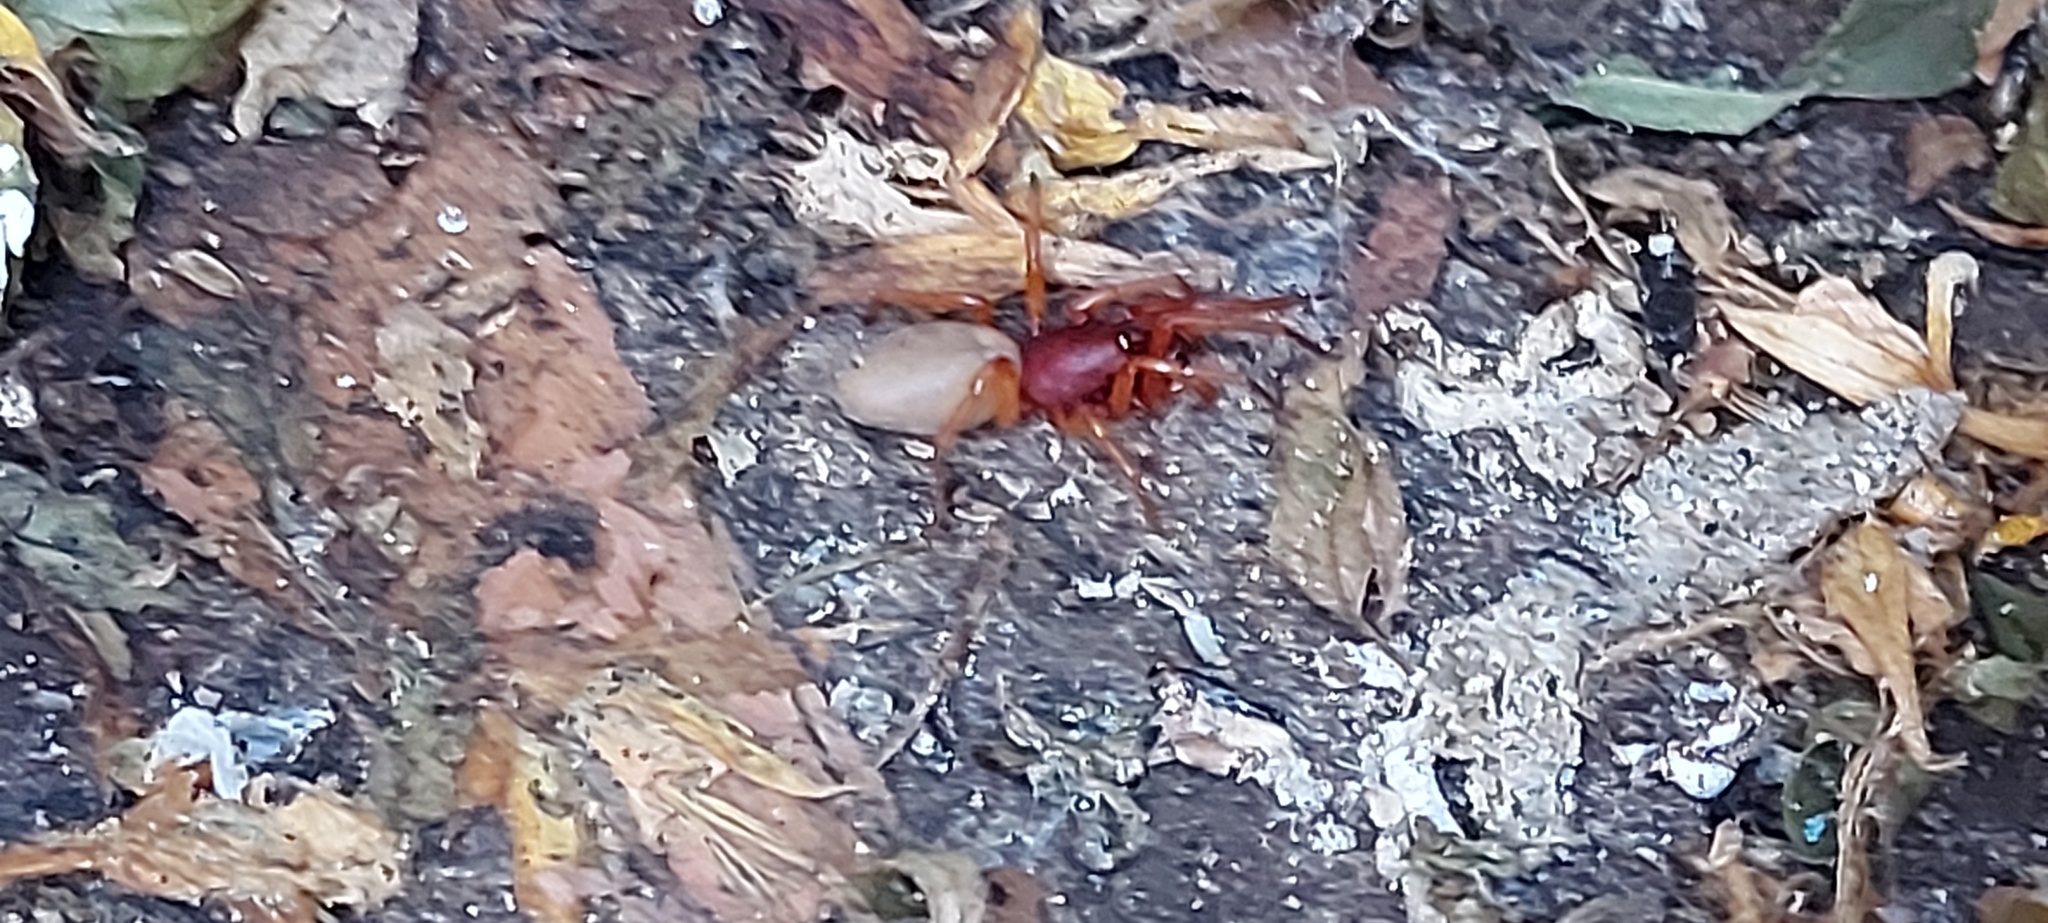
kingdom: Animalia
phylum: Arthropoda
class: Arachnida
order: Araneae
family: Dysderidae
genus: Dysdera
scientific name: Dysdera crocata
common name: Woodlouse spider
